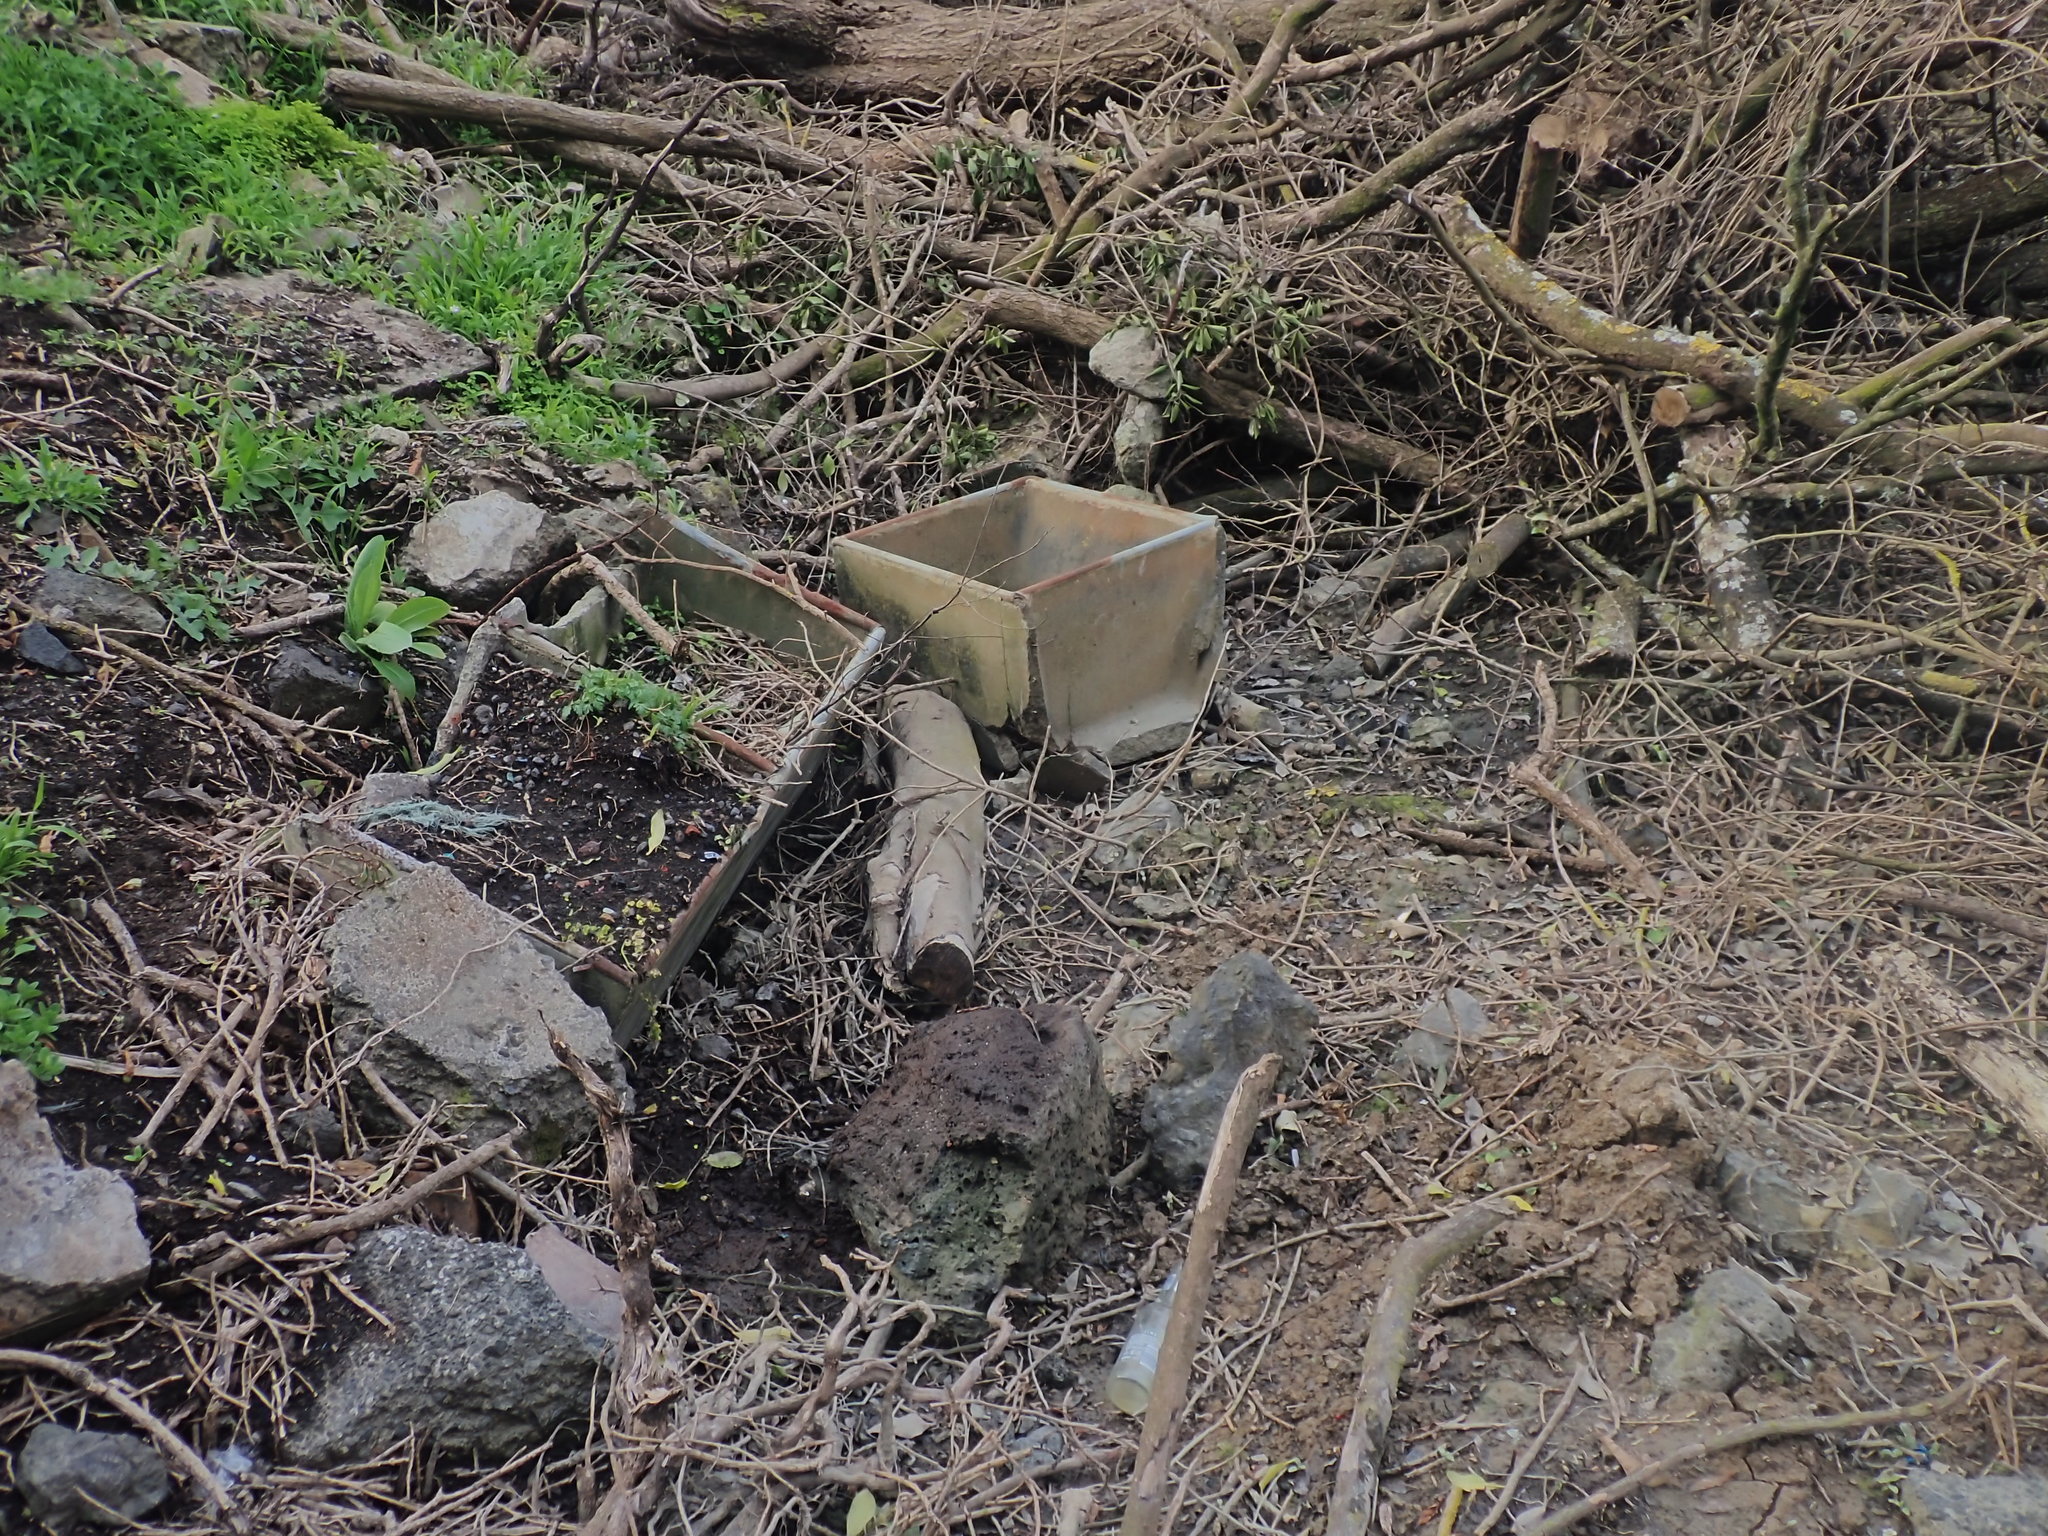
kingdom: Animalia
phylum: Mollusca
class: Gastropoda
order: Ellobiida
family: Ellobiidae
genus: Microtralia
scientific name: Microtralia insularis
